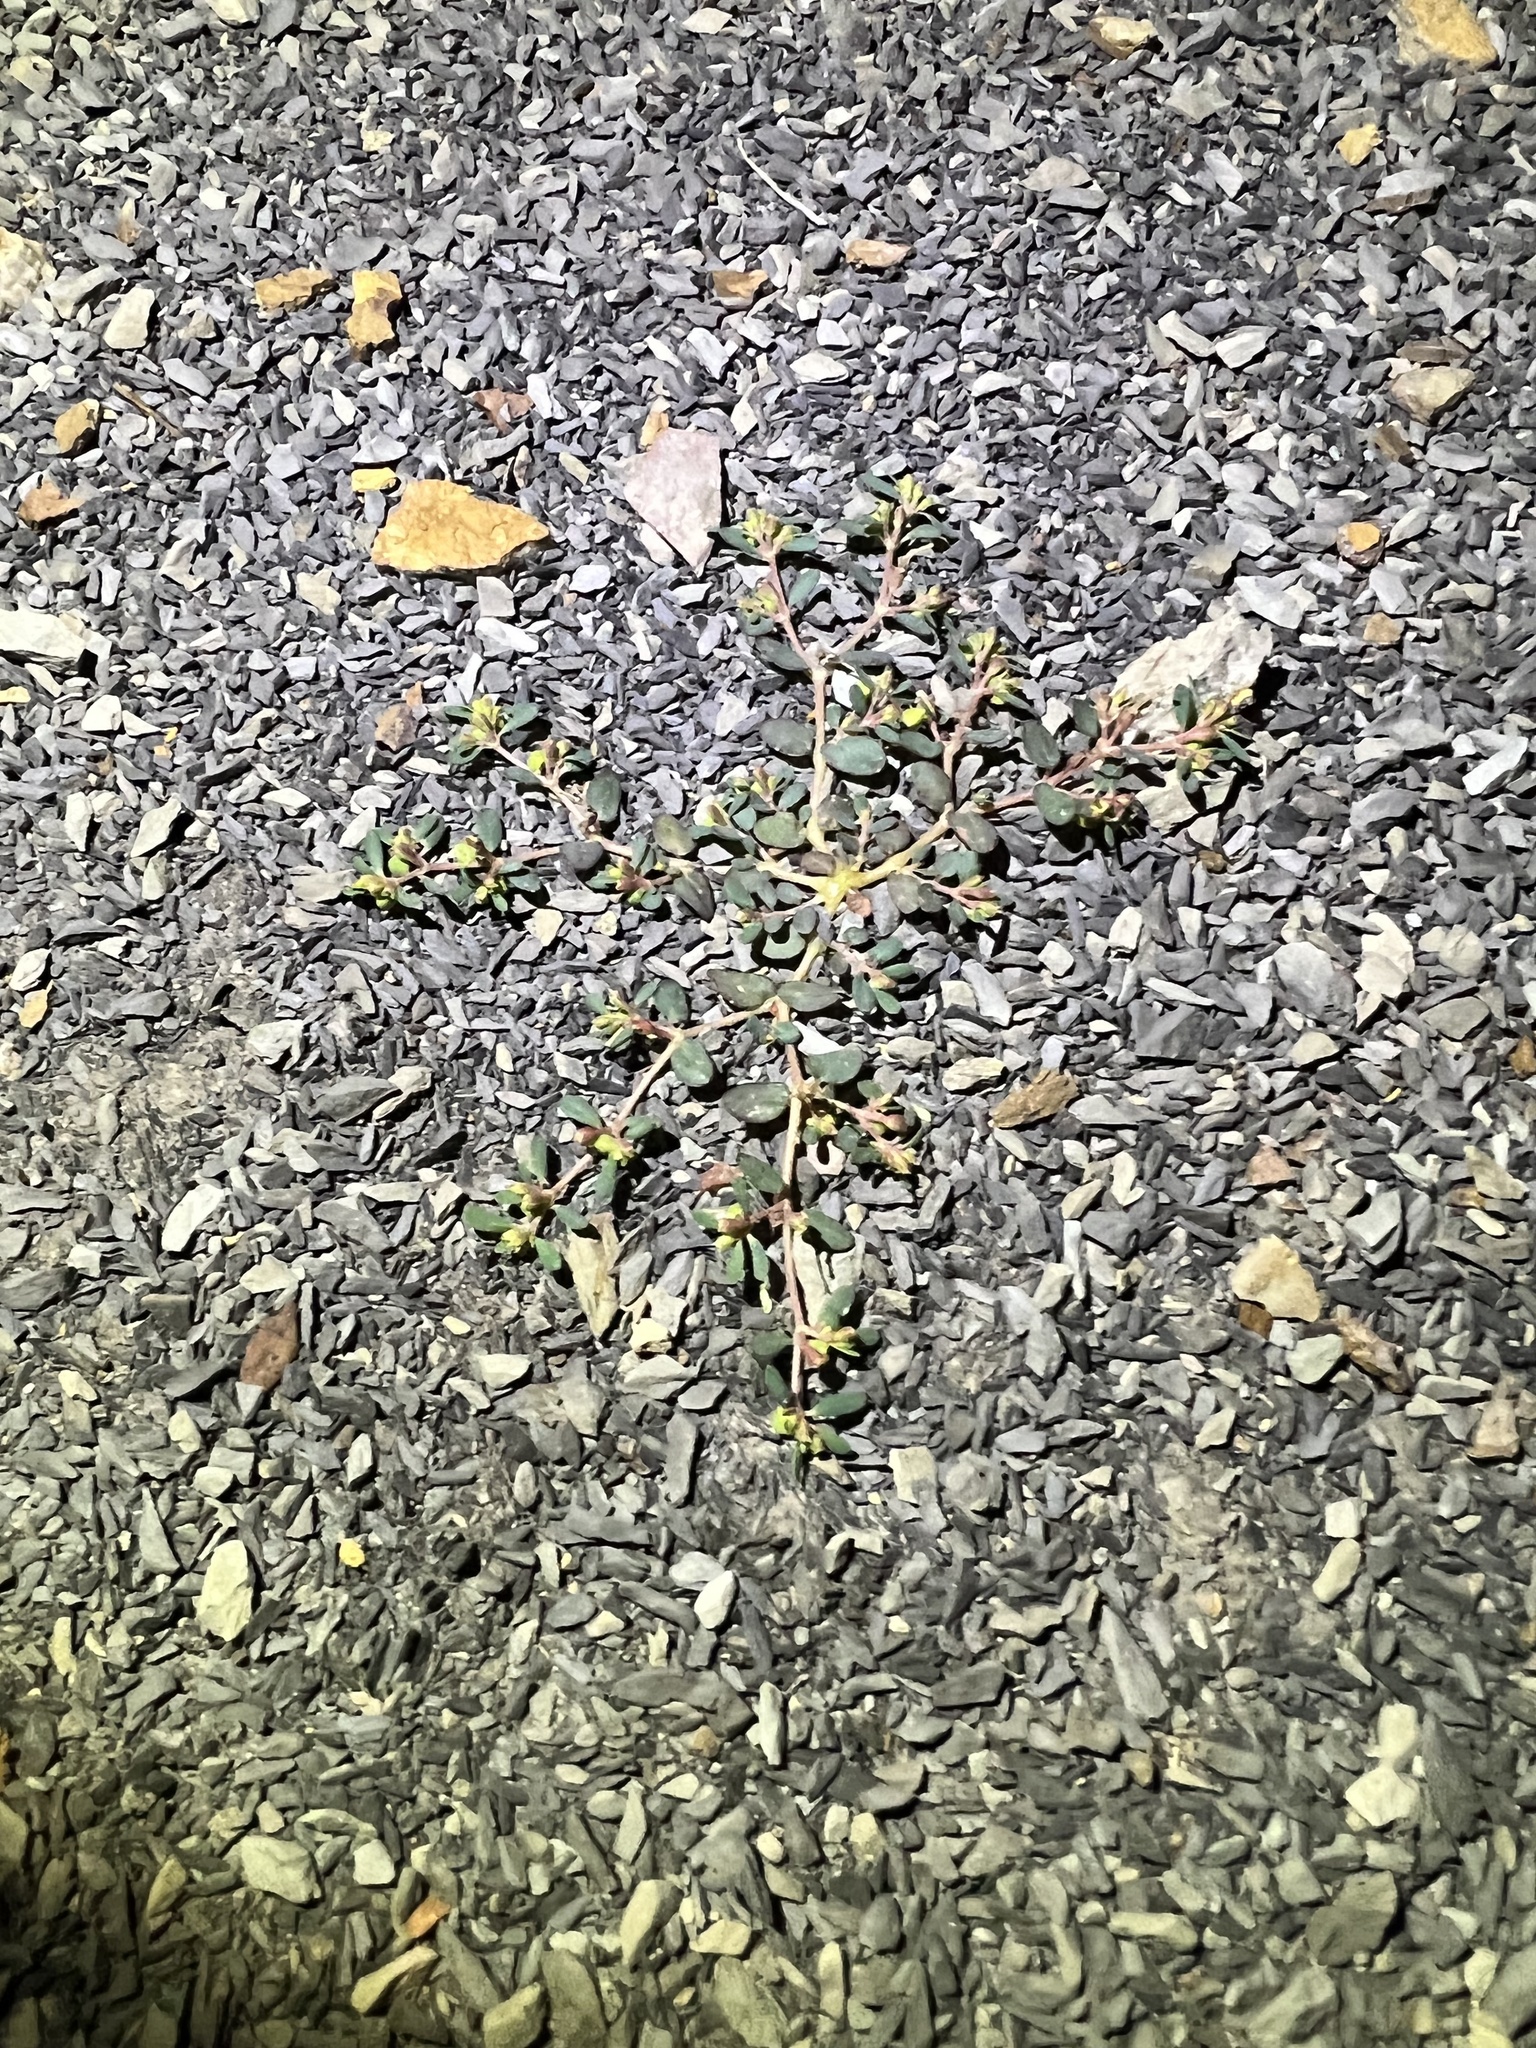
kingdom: Plantae
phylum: Tracheophyta
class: Magnoliopsida
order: Malpighiales
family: Euphorbiaceae
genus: Euphorbia
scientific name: Euphorbia cryptorubra
